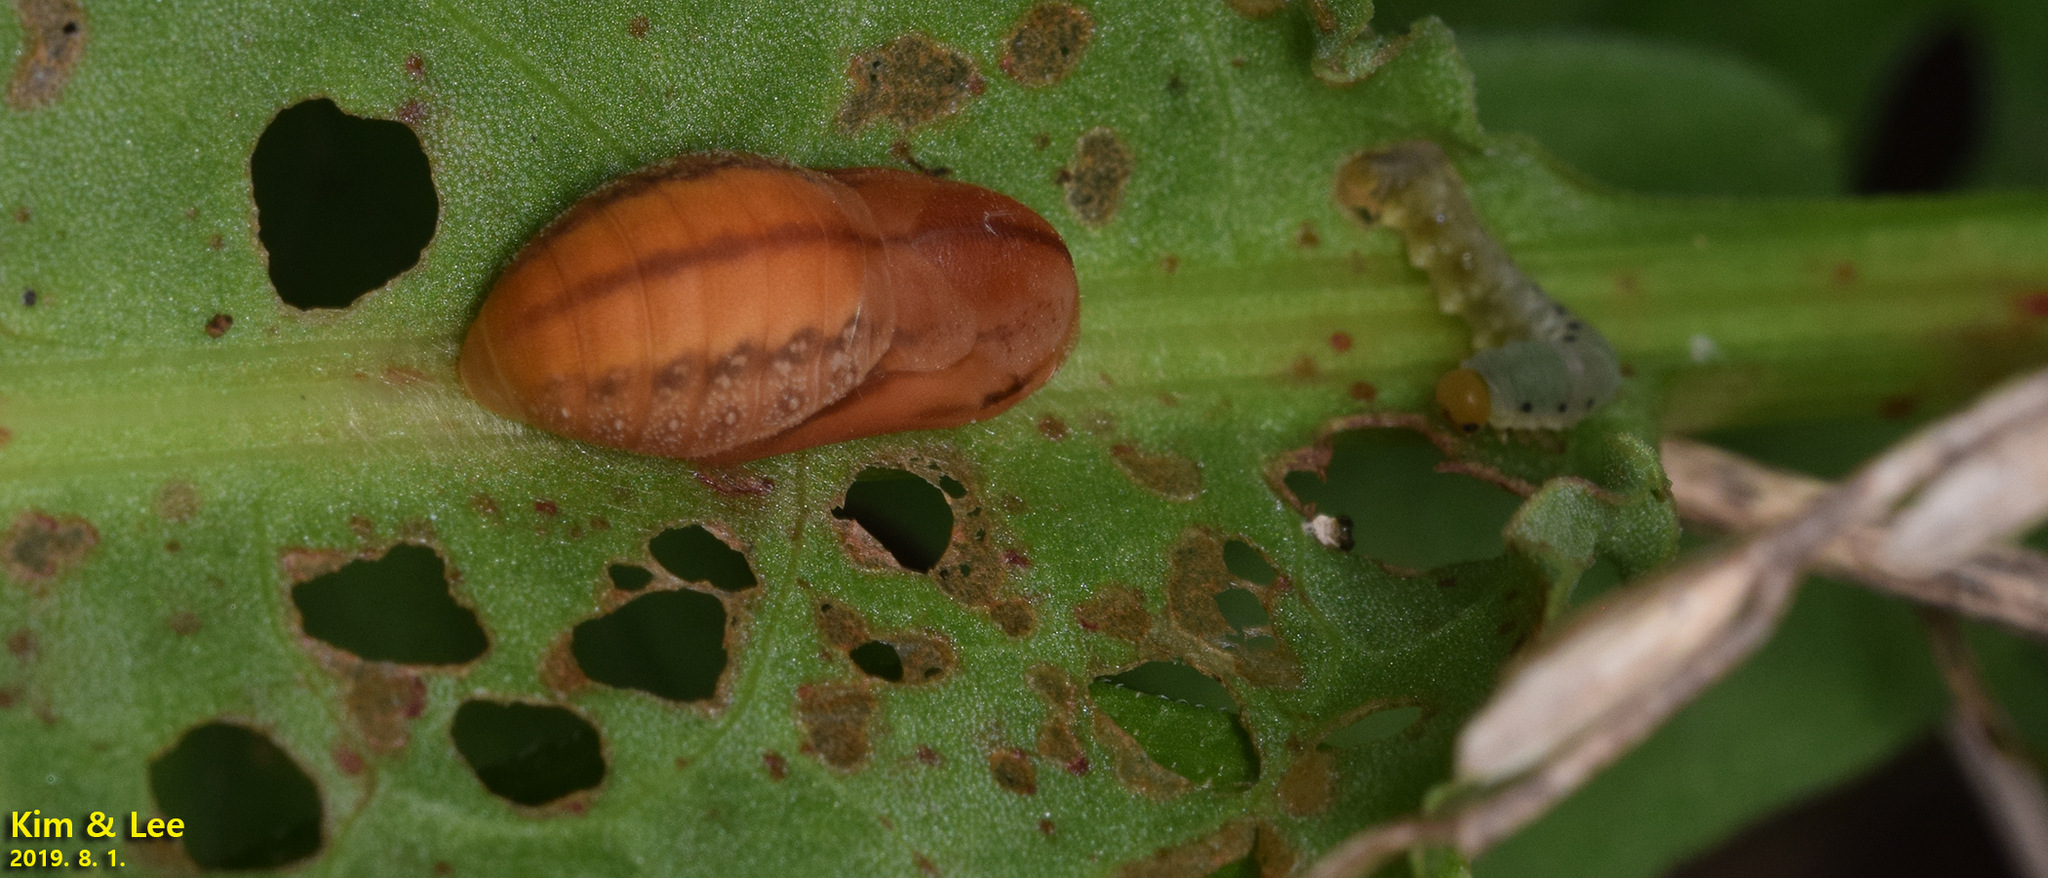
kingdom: Animalia
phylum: Arthropoda
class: Insecta
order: Lepidoptera
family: Lycaenidae
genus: Lycaena
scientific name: Lycaena dispar
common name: Large copper
